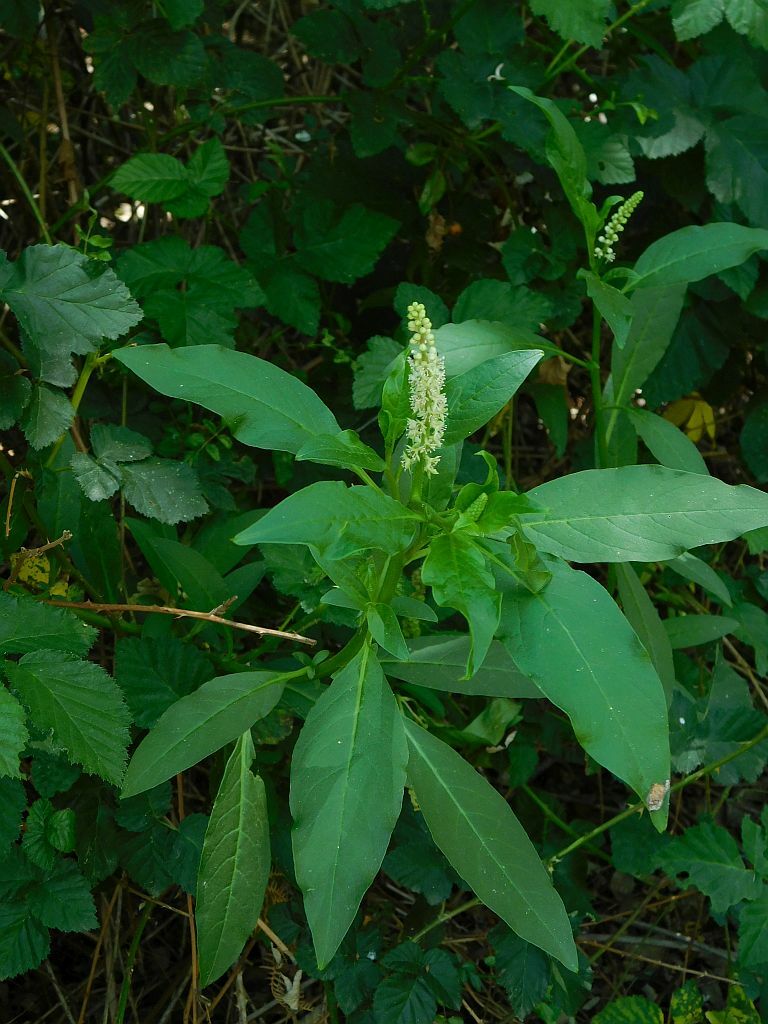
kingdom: Plantae
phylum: Tracheophyta
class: Magnoliopsida
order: Caryophyllales
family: Phytolaccaceae
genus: Phytolacca
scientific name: Phytolacca icosandra
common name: Button pokeweed
